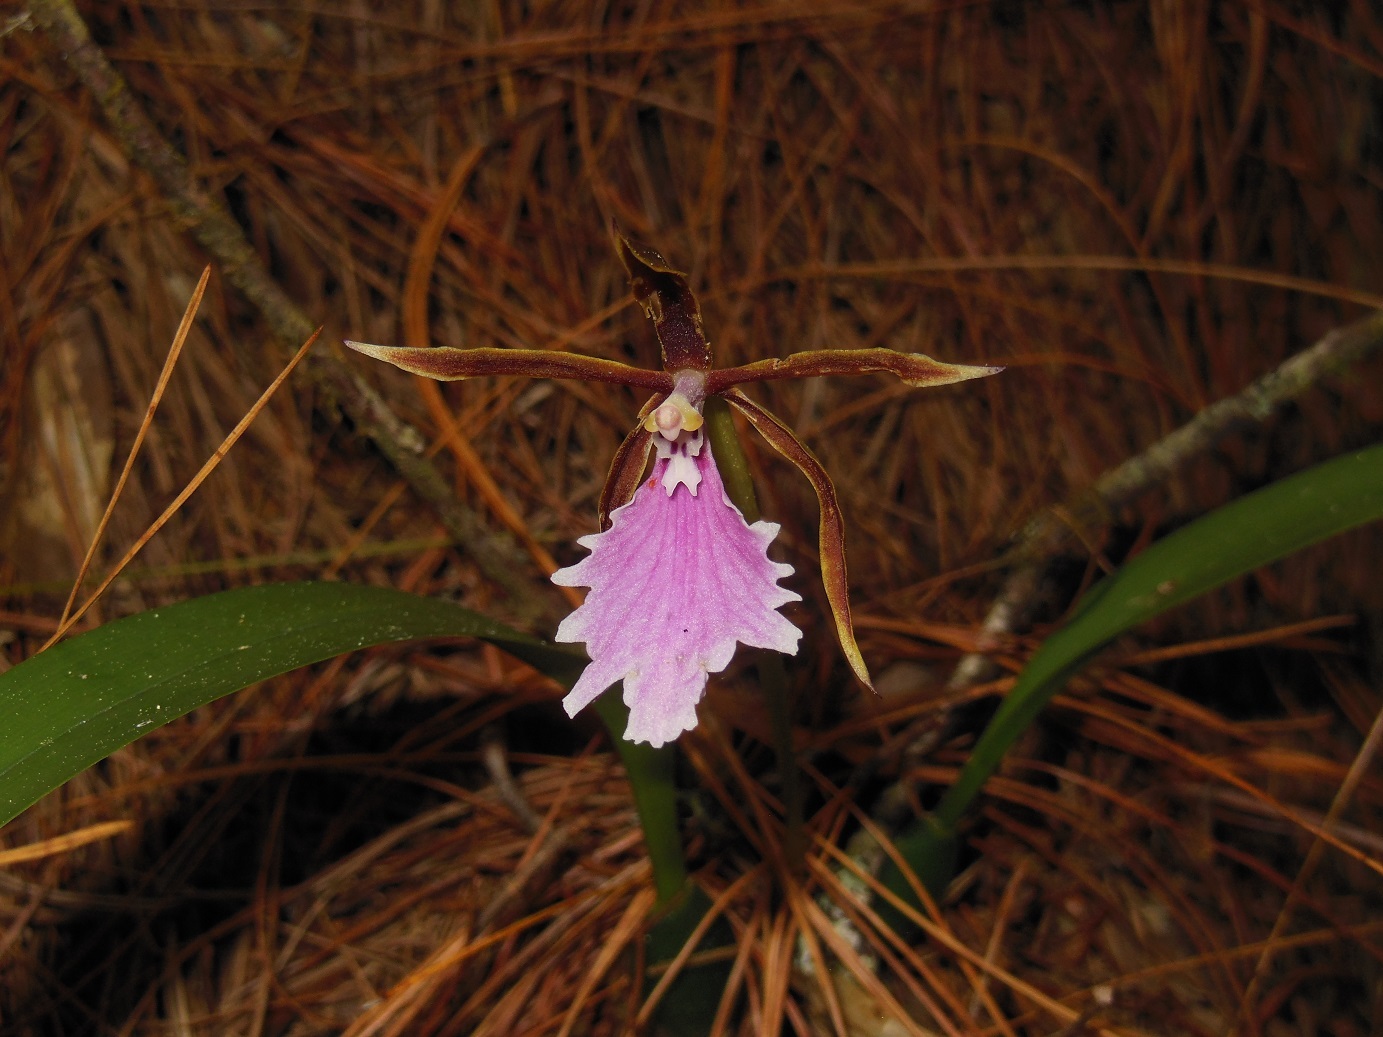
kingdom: Plantae
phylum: Tracheophyta
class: Liliopsida
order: Asparagales
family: Orchidaceae
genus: Rhynchostele
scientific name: Rhynchostele stellata
